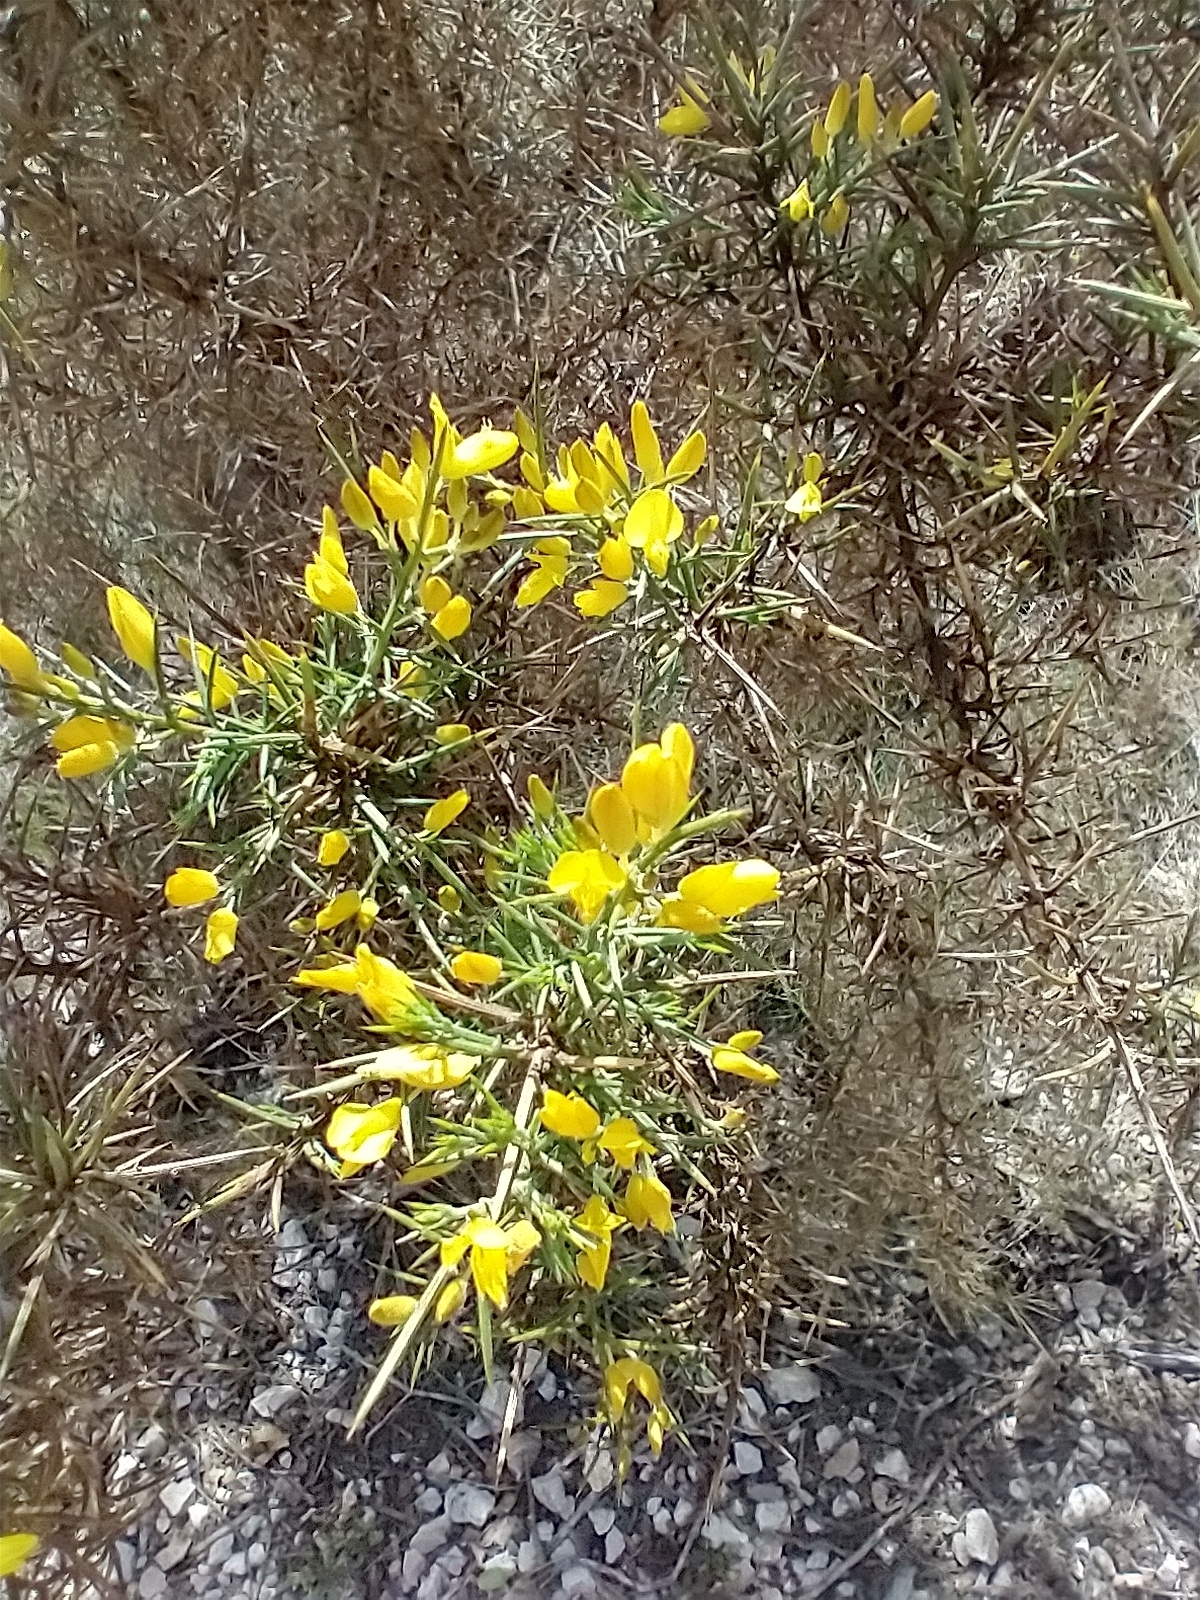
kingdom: Plantae
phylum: Tracheophyta
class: Magnoliopsida
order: Fabales
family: Fabaceae
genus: Ulex
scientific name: Ulex parviflorus
